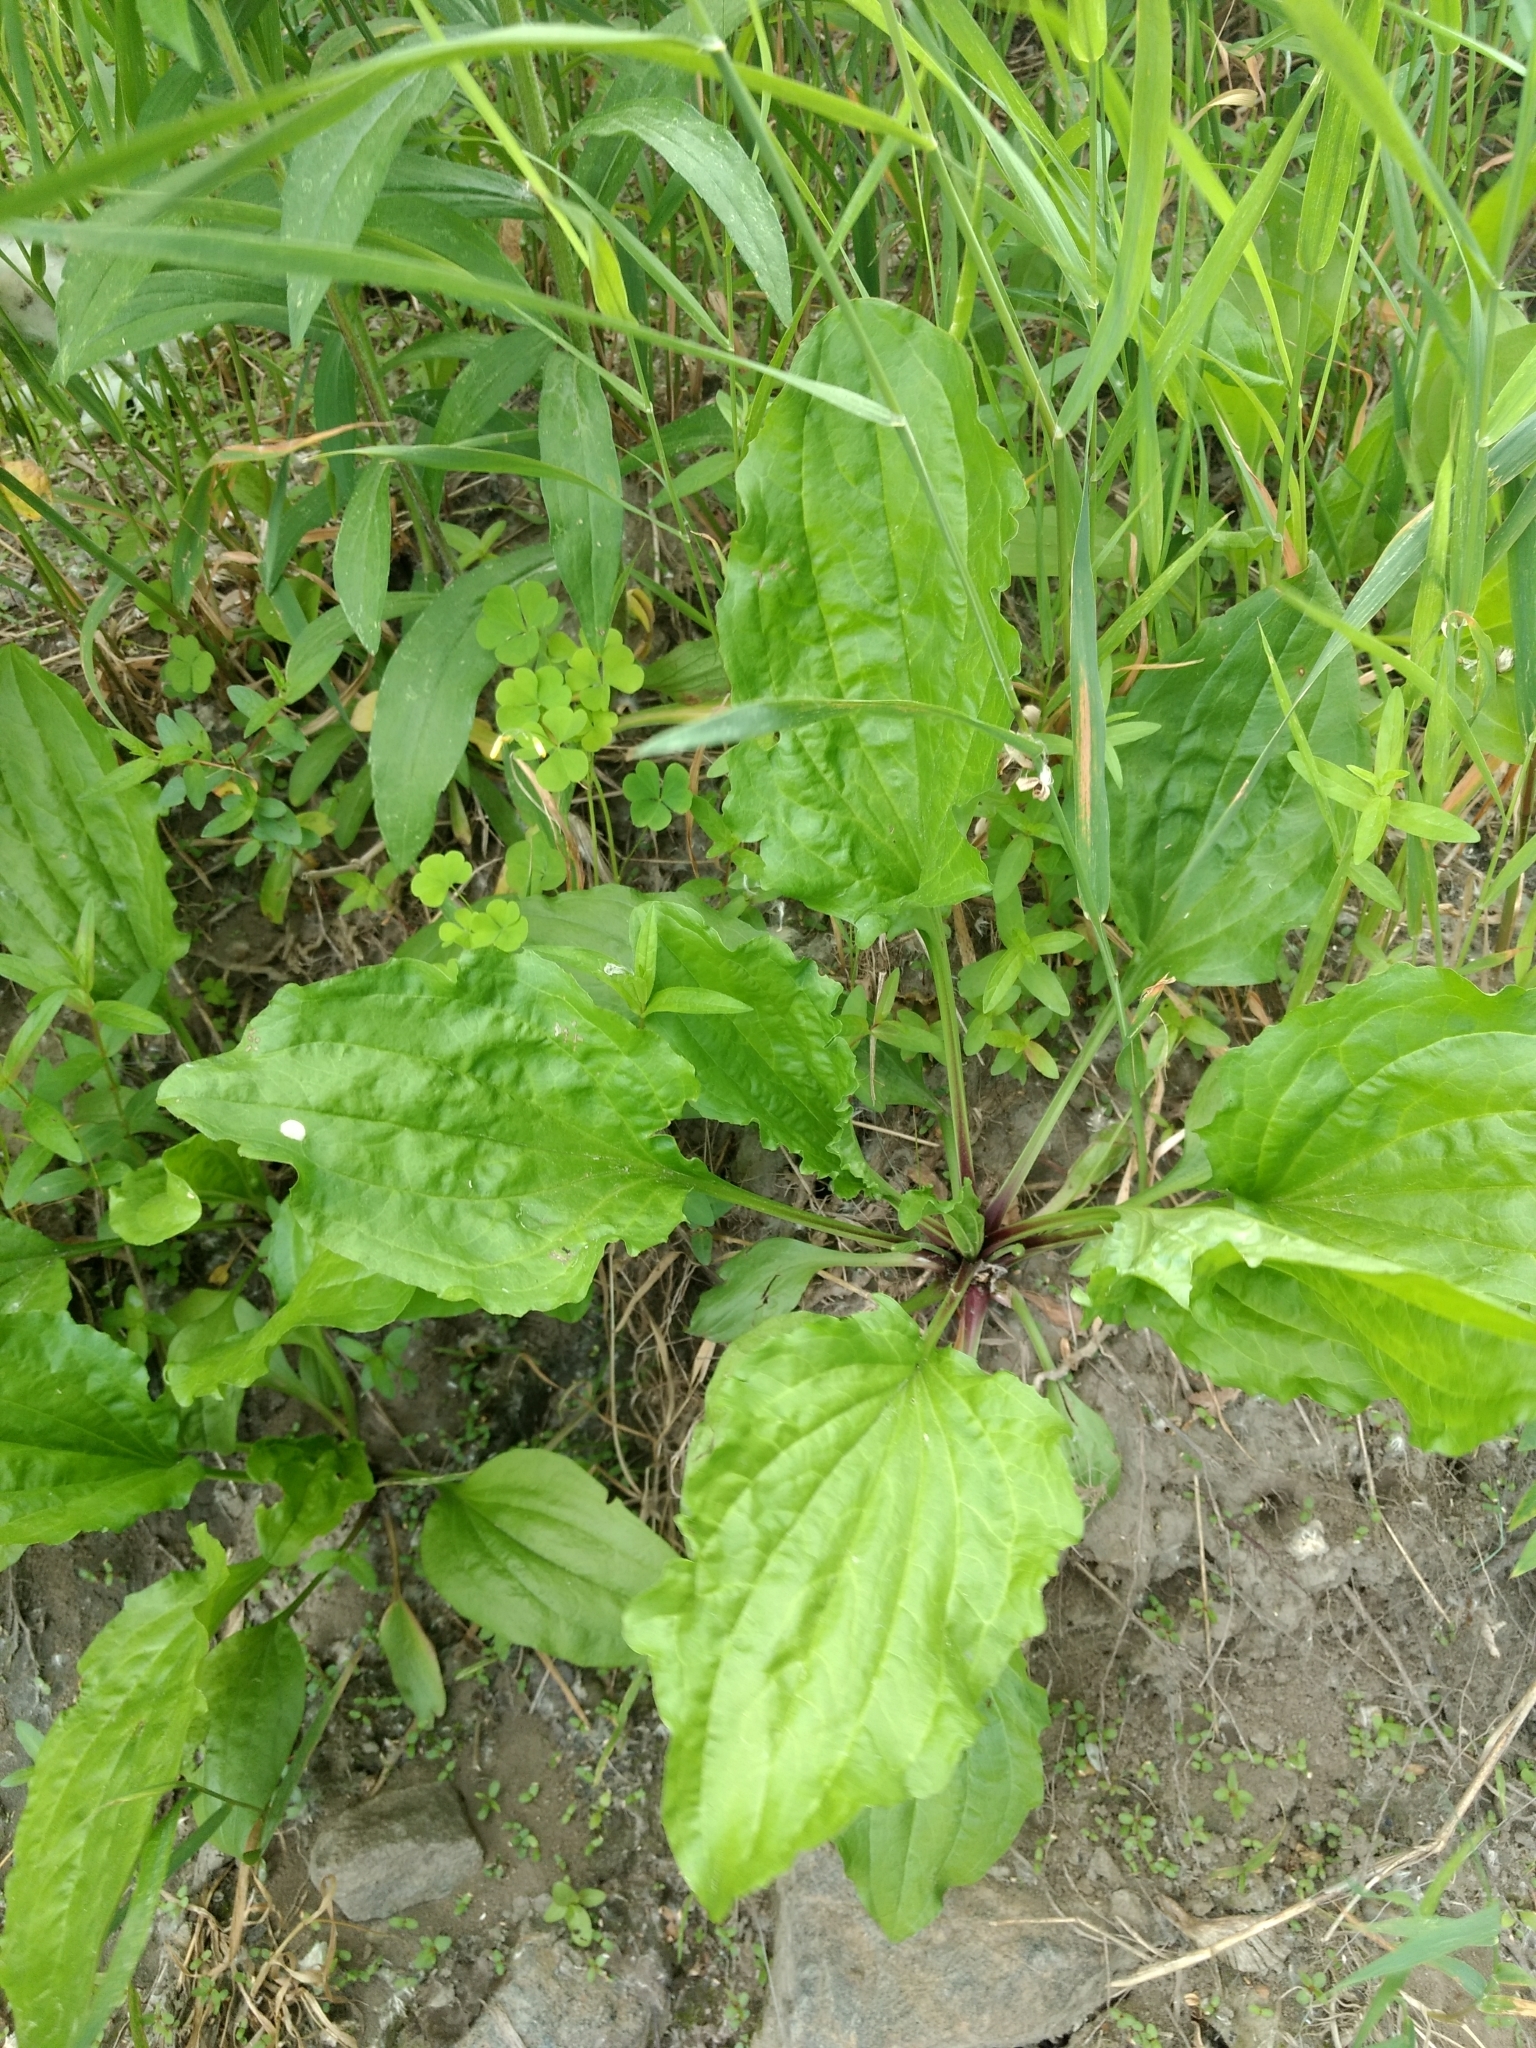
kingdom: Plantae
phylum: Tracheophyta
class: Magnoliopsida
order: Lamiales
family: Plantaginaceae
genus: Plantago
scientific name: Plantago rugelii
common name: American plantain
